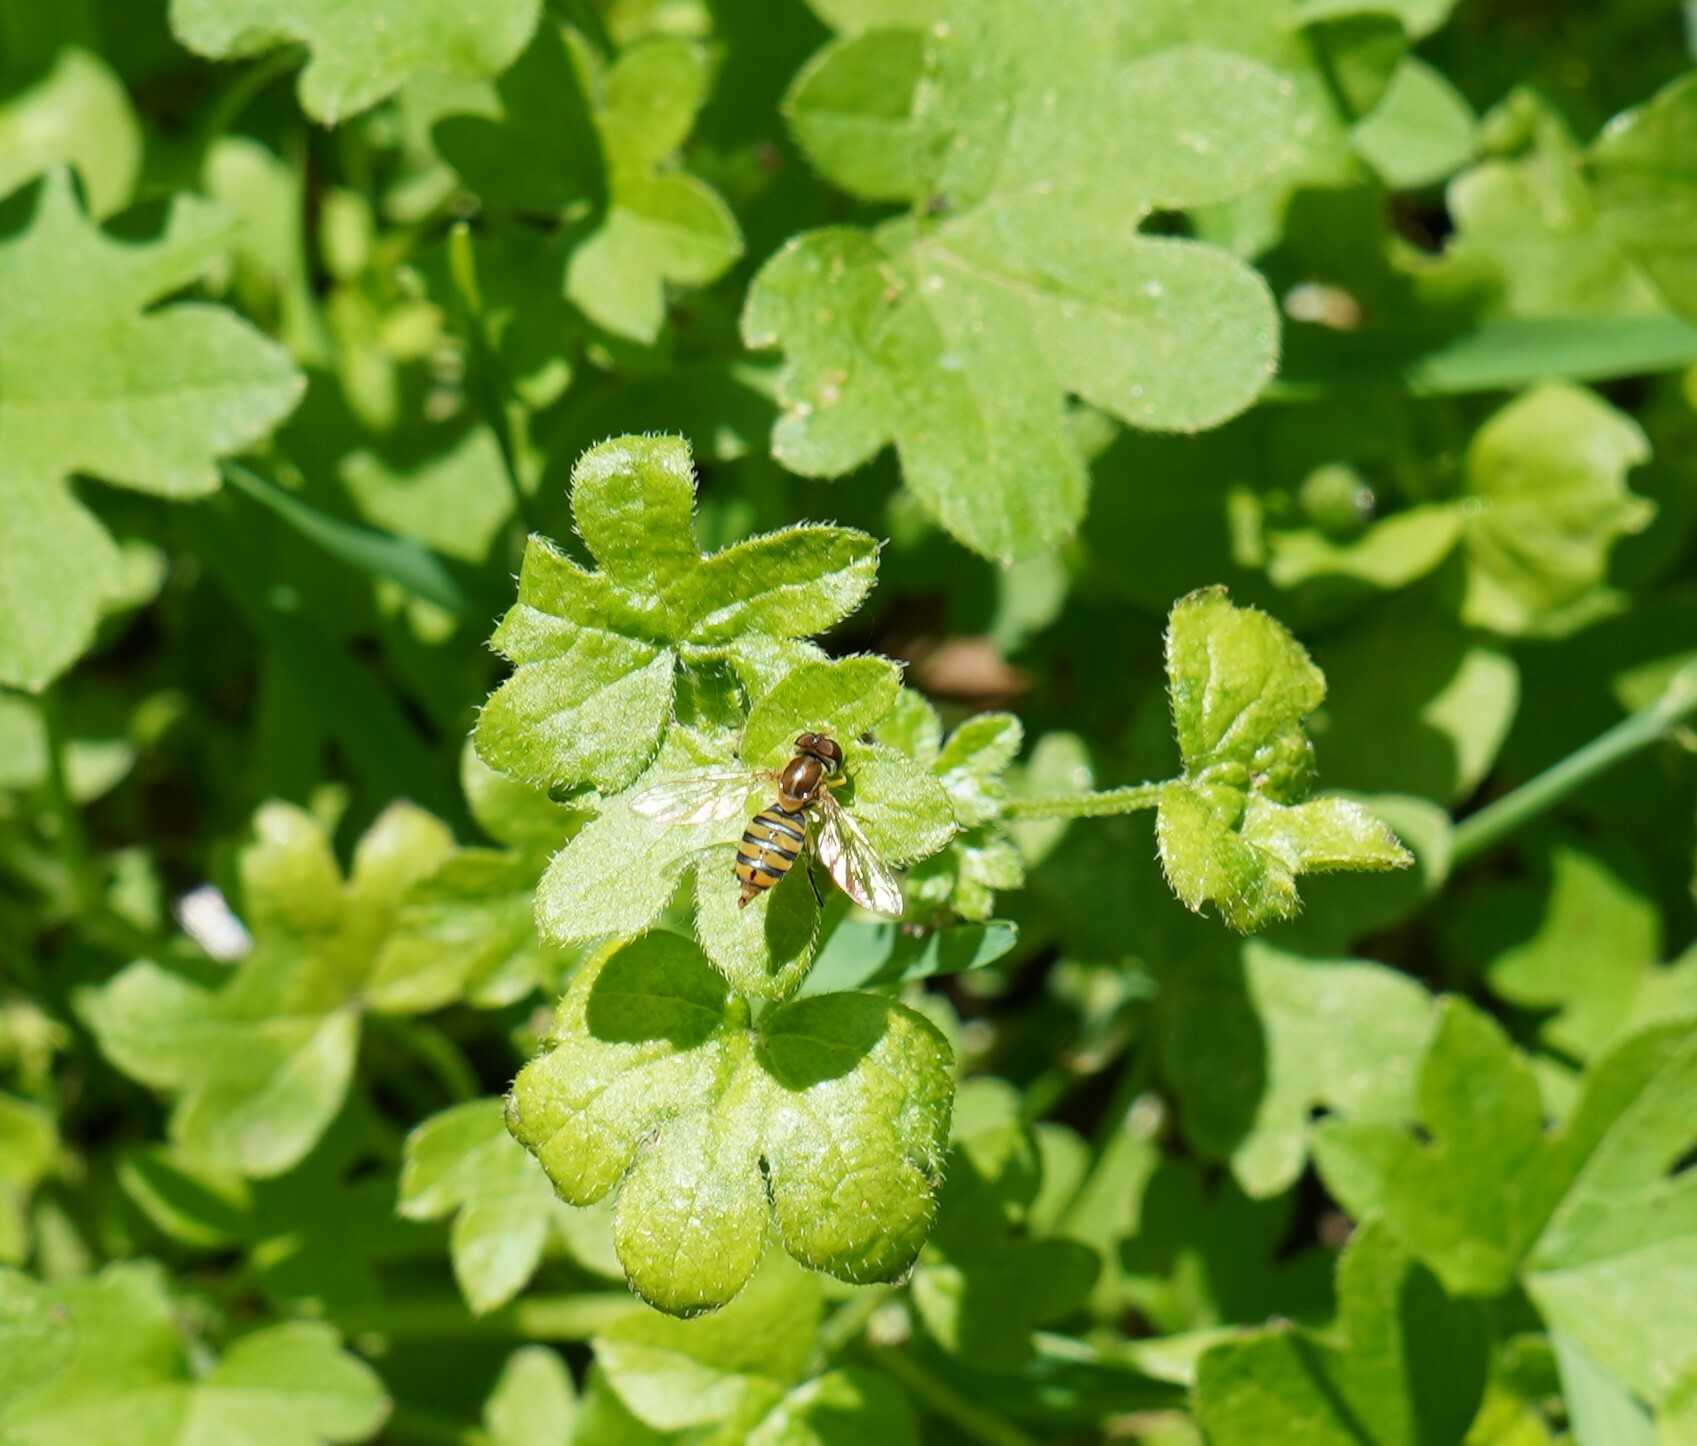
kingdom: Plantae
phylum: Tracheophyta
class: Magnoliopsida
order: Apiales
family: Apiaceae
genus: Bowlesia
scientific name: Bowlesia incana
